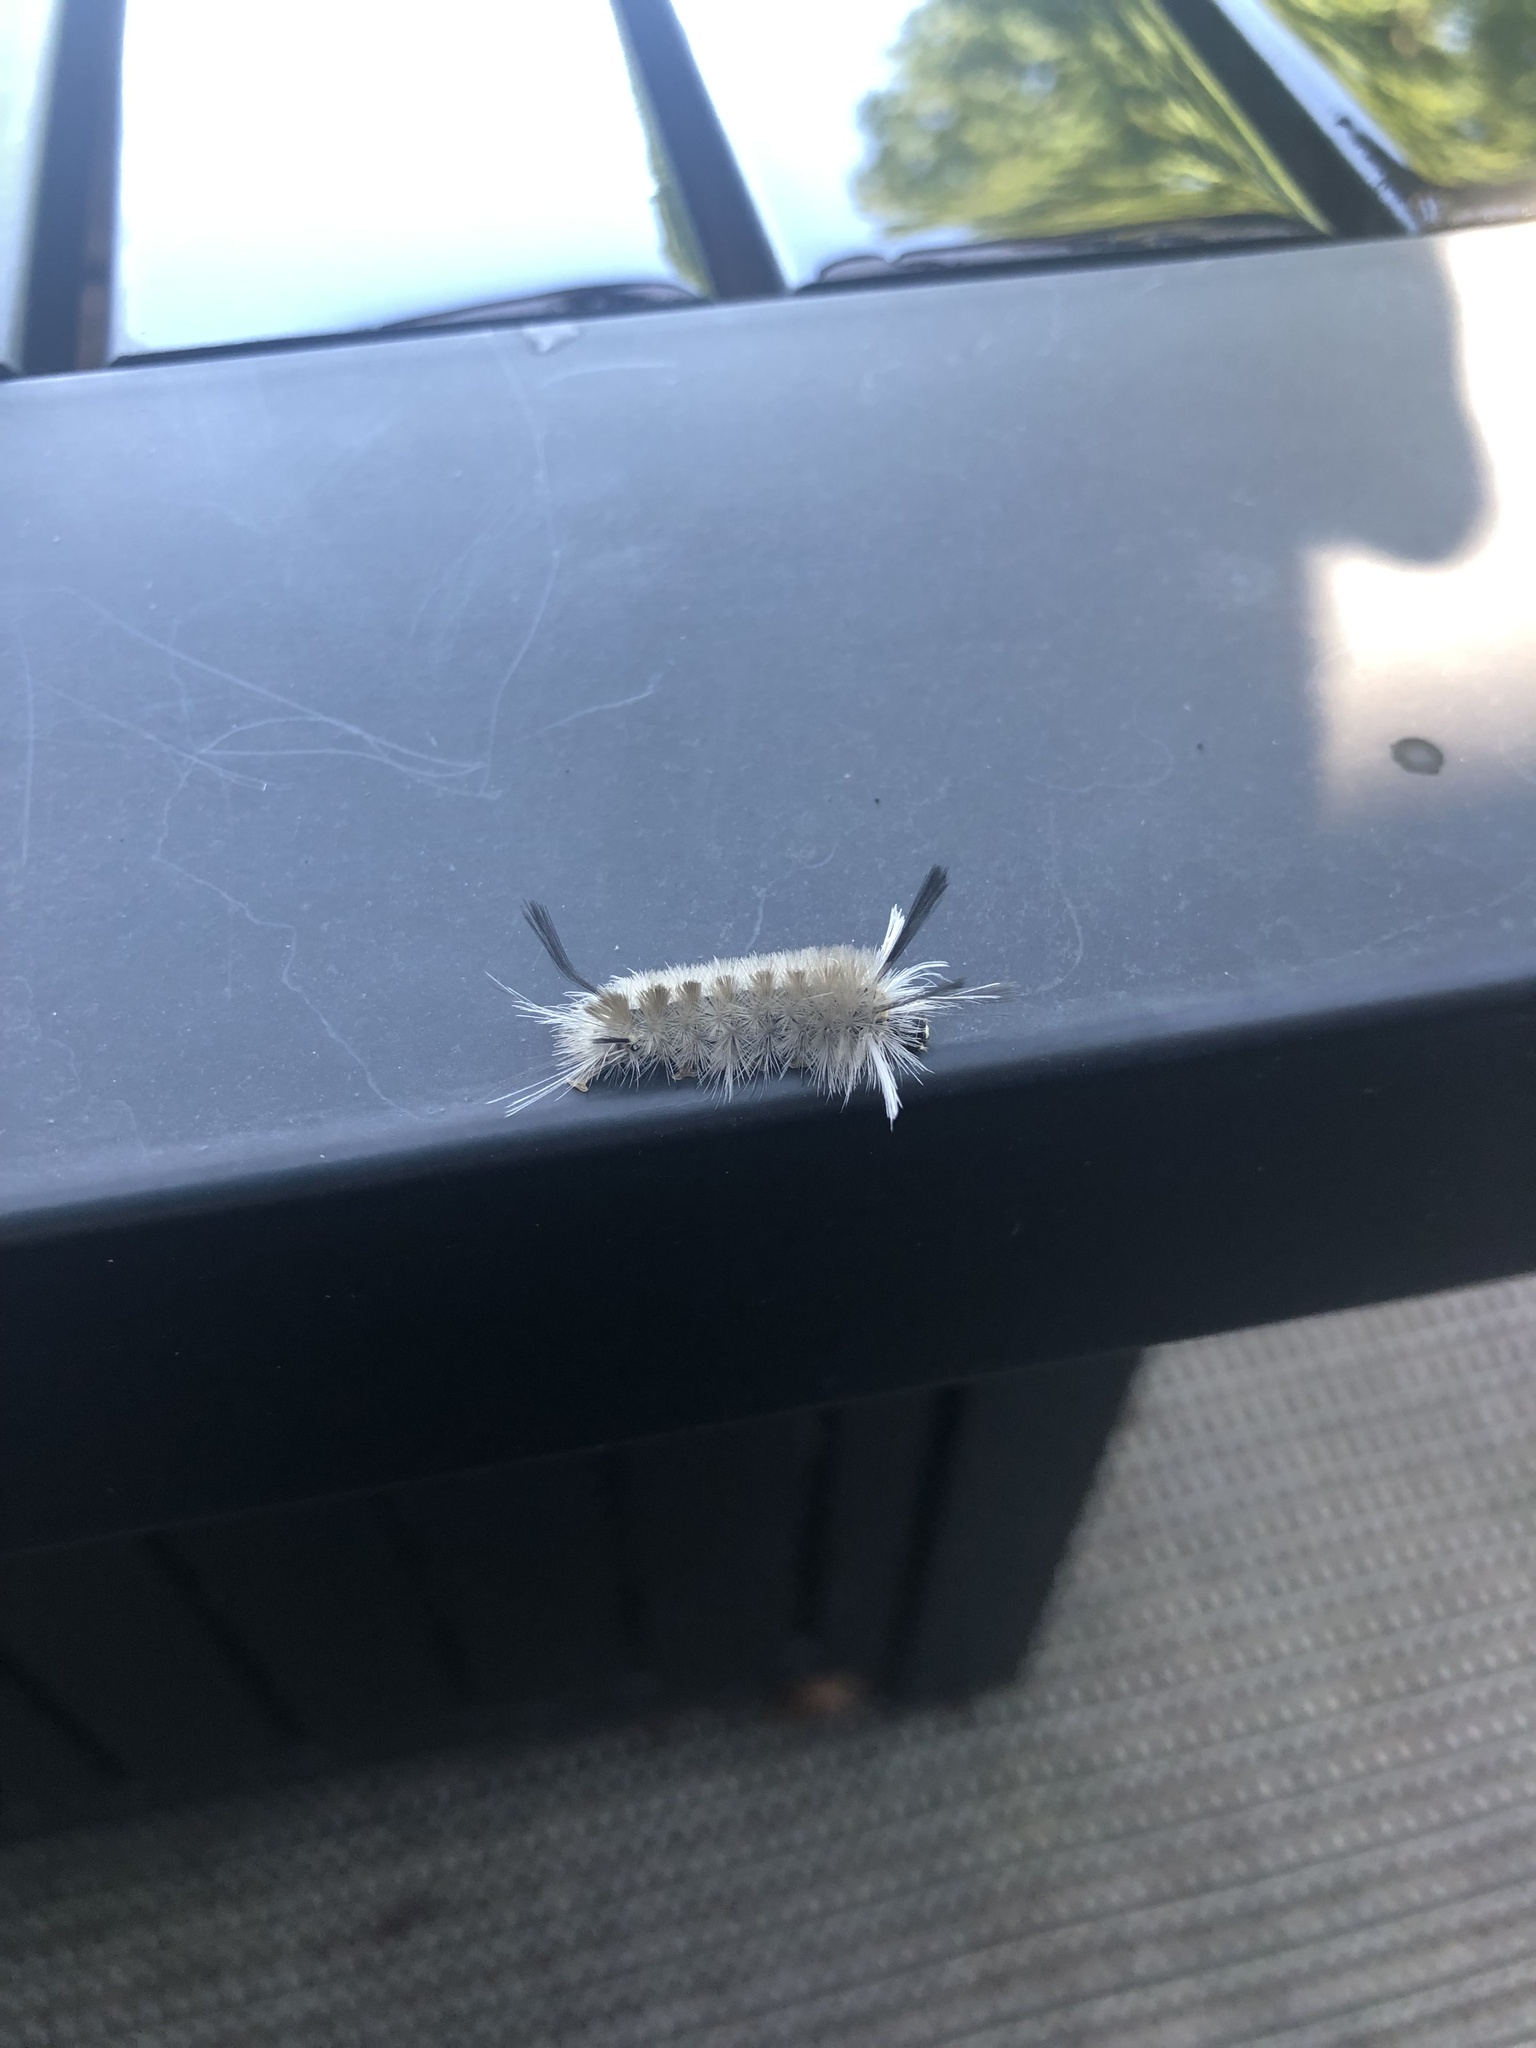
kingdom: Animalia
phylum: Arthropoda
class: Insecta
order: Lepidoptera
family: Erebidae
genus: Halysidota
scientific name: Halysidota tessellaris
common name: Banded tussock moth
